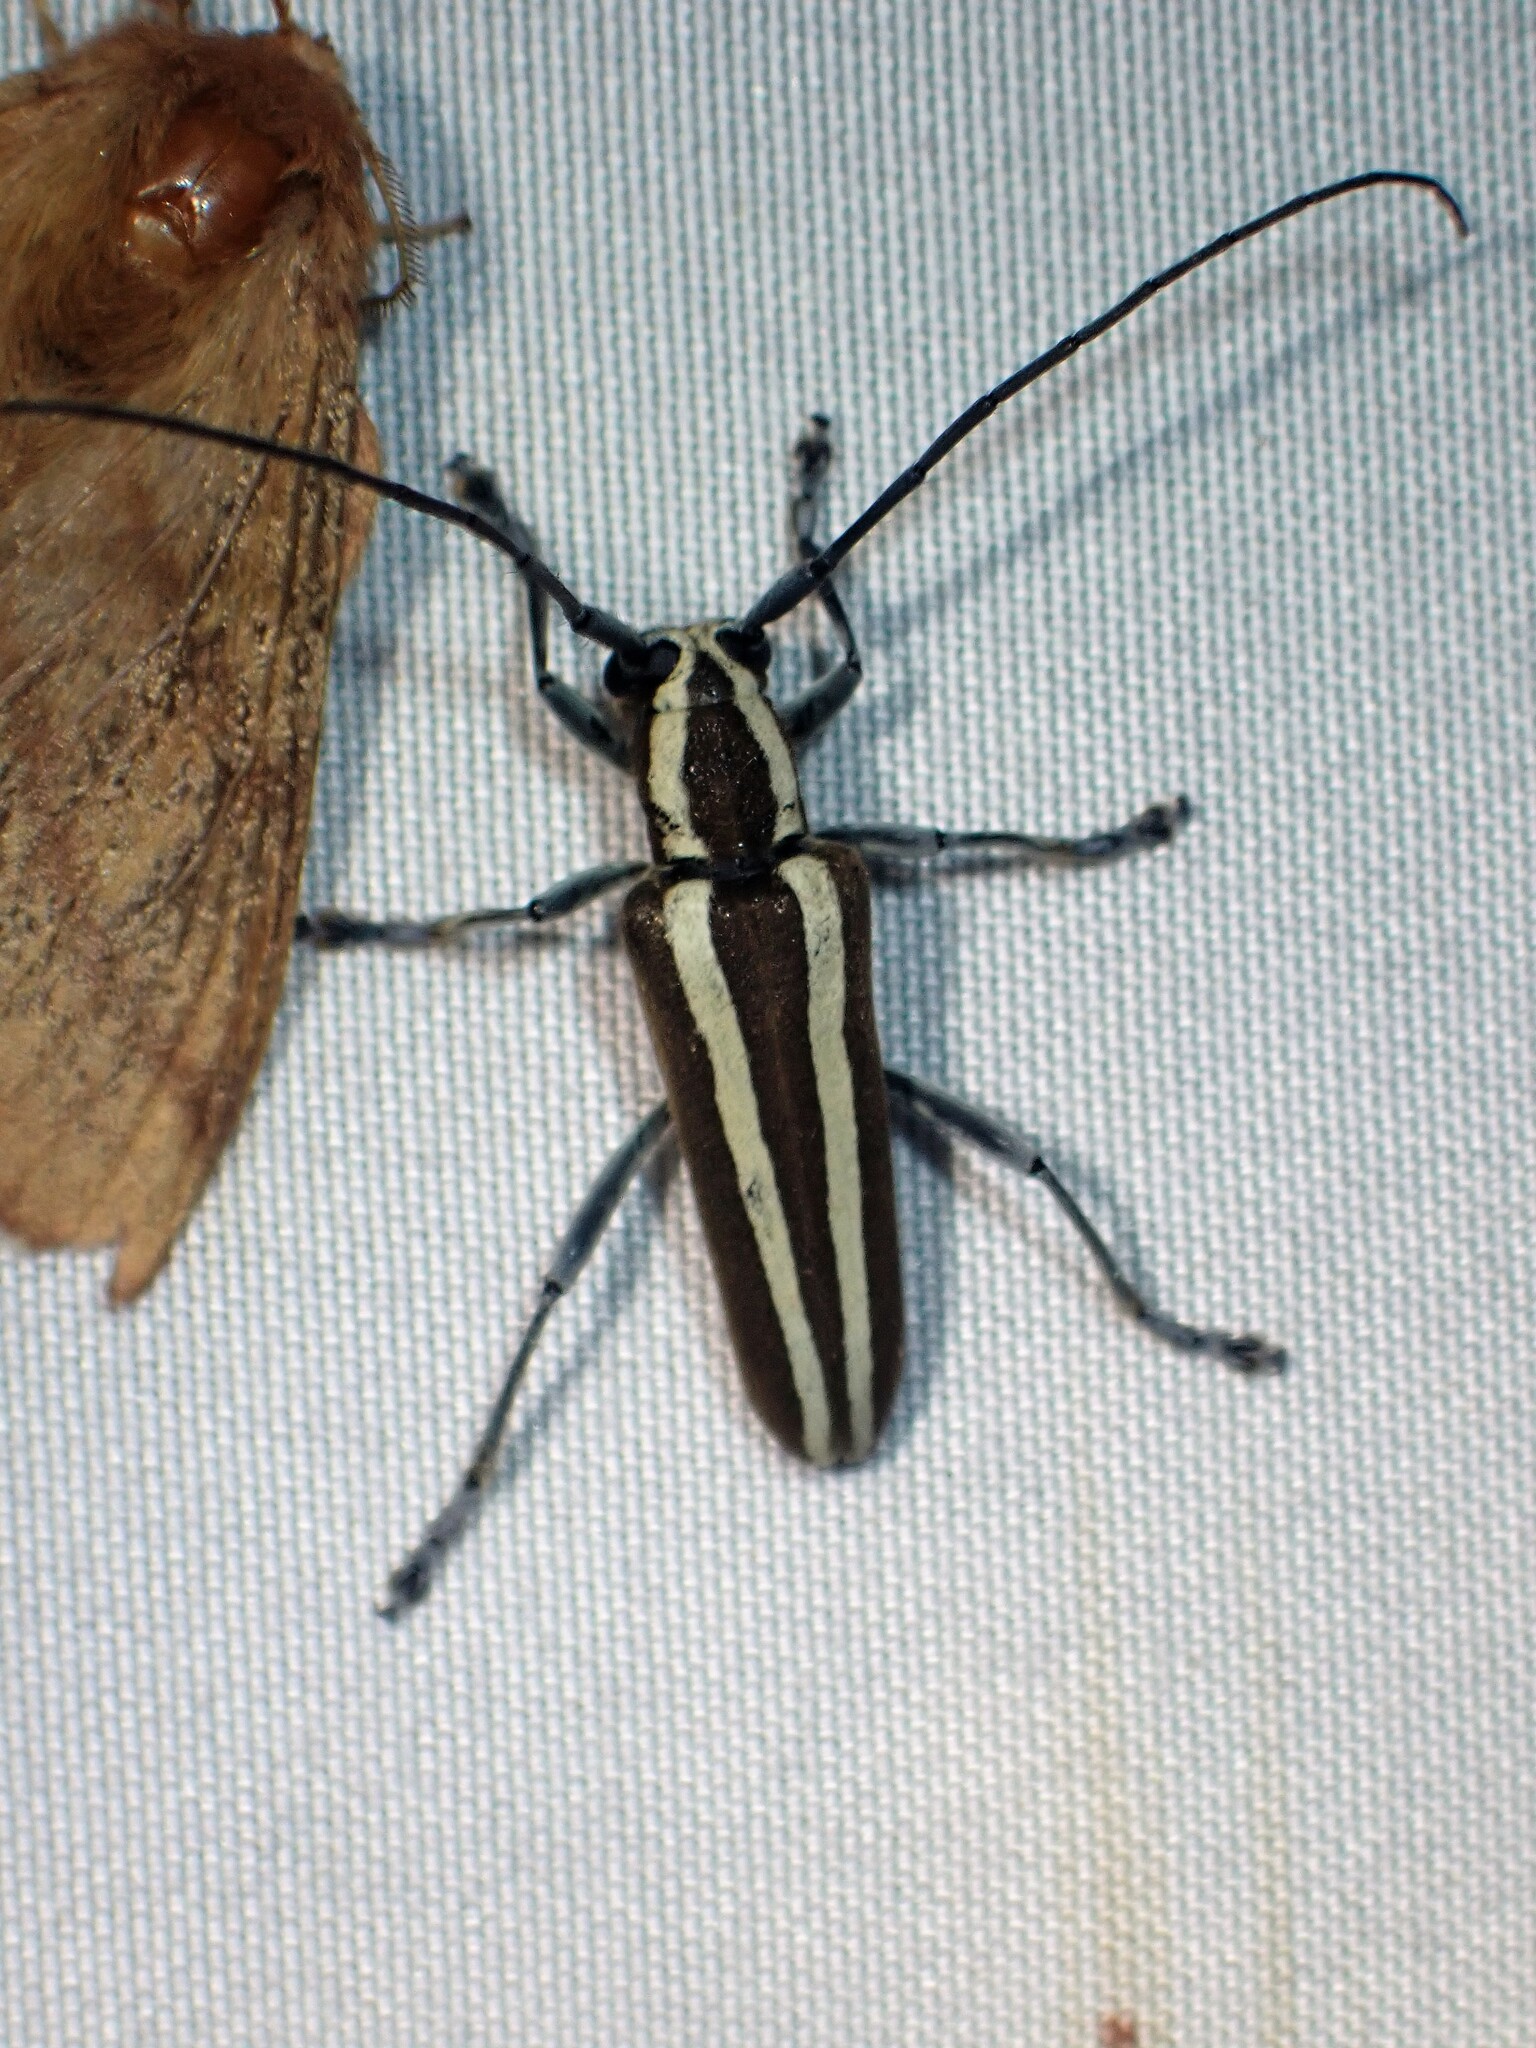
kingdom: Animalia
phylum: Arthropoda
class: Insecta
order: Coleoptera
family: Cerambycidae
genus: Saperda
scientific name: Saperda candida
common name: Round-headed borer
